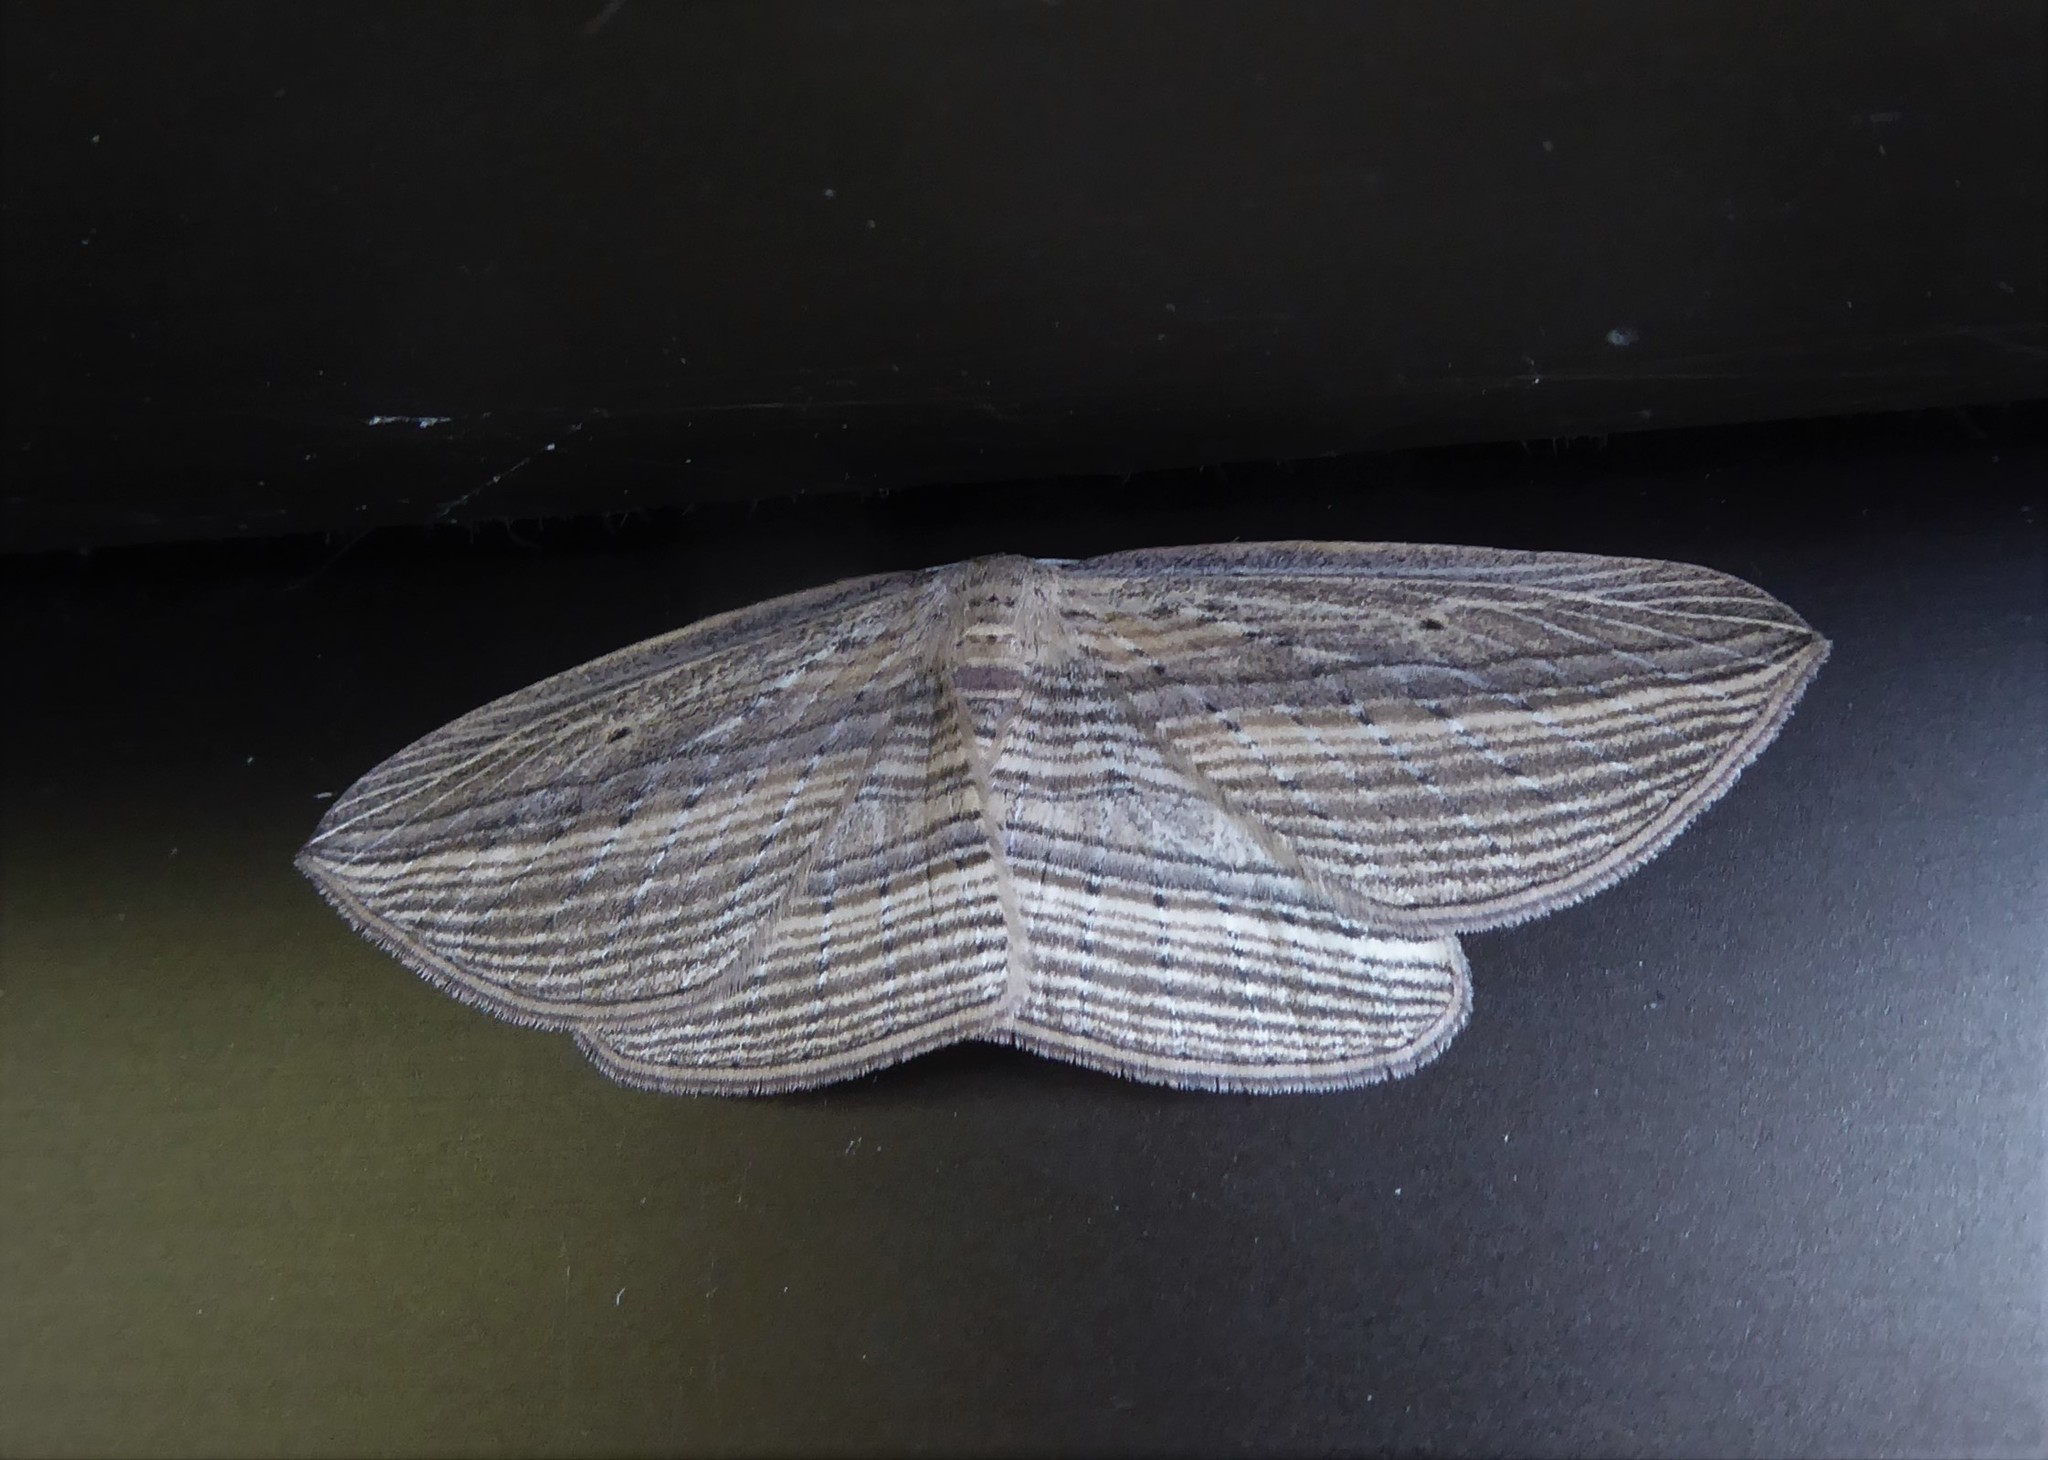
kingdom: Animalia
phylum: Arthropoda
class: Insecta
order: Lepidoptera
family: Geometridae
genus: Epiphryne
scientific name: Epiphryne verriculata
